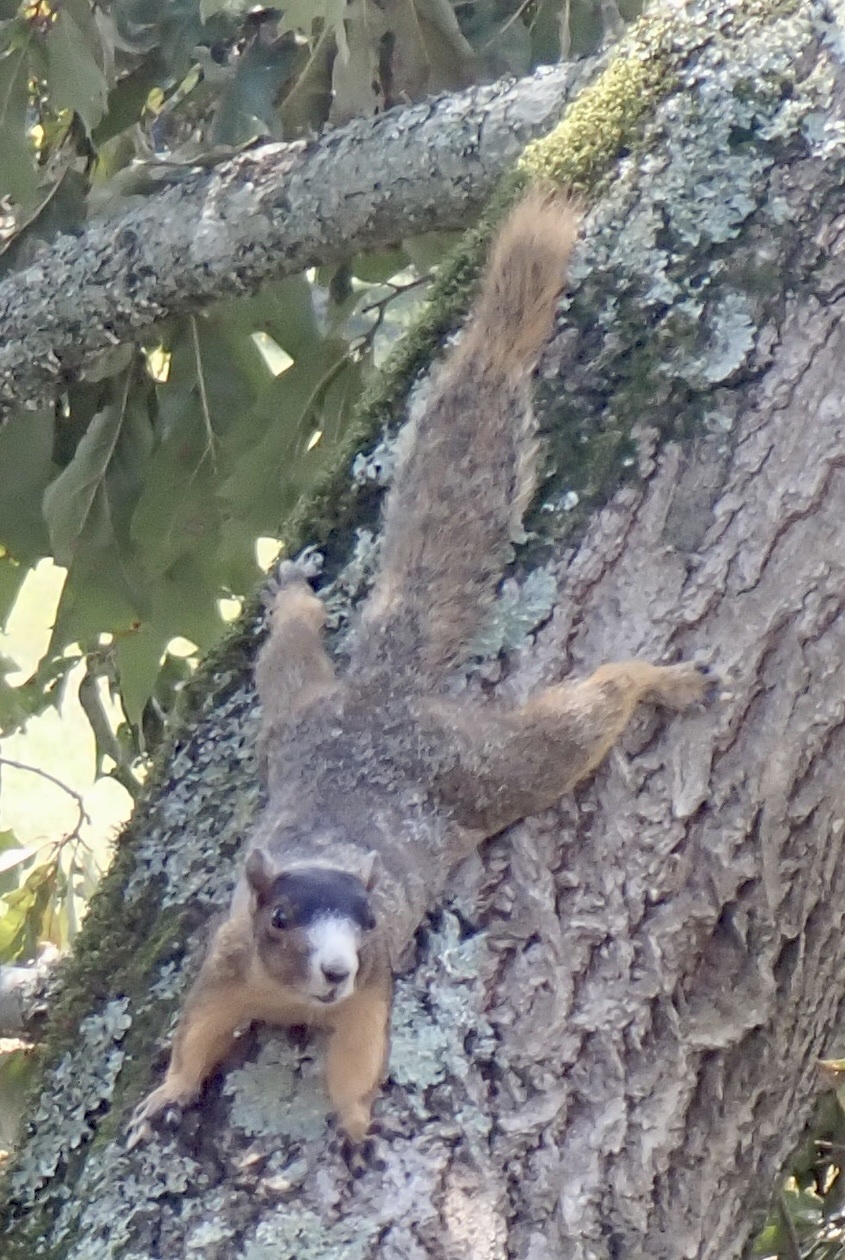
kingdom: Animalia
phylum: Chordata
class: Mammalia
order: Rodentia
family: Sciuridae
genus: Sciurus
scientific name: Sciurus niger
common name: Fox squirrel
